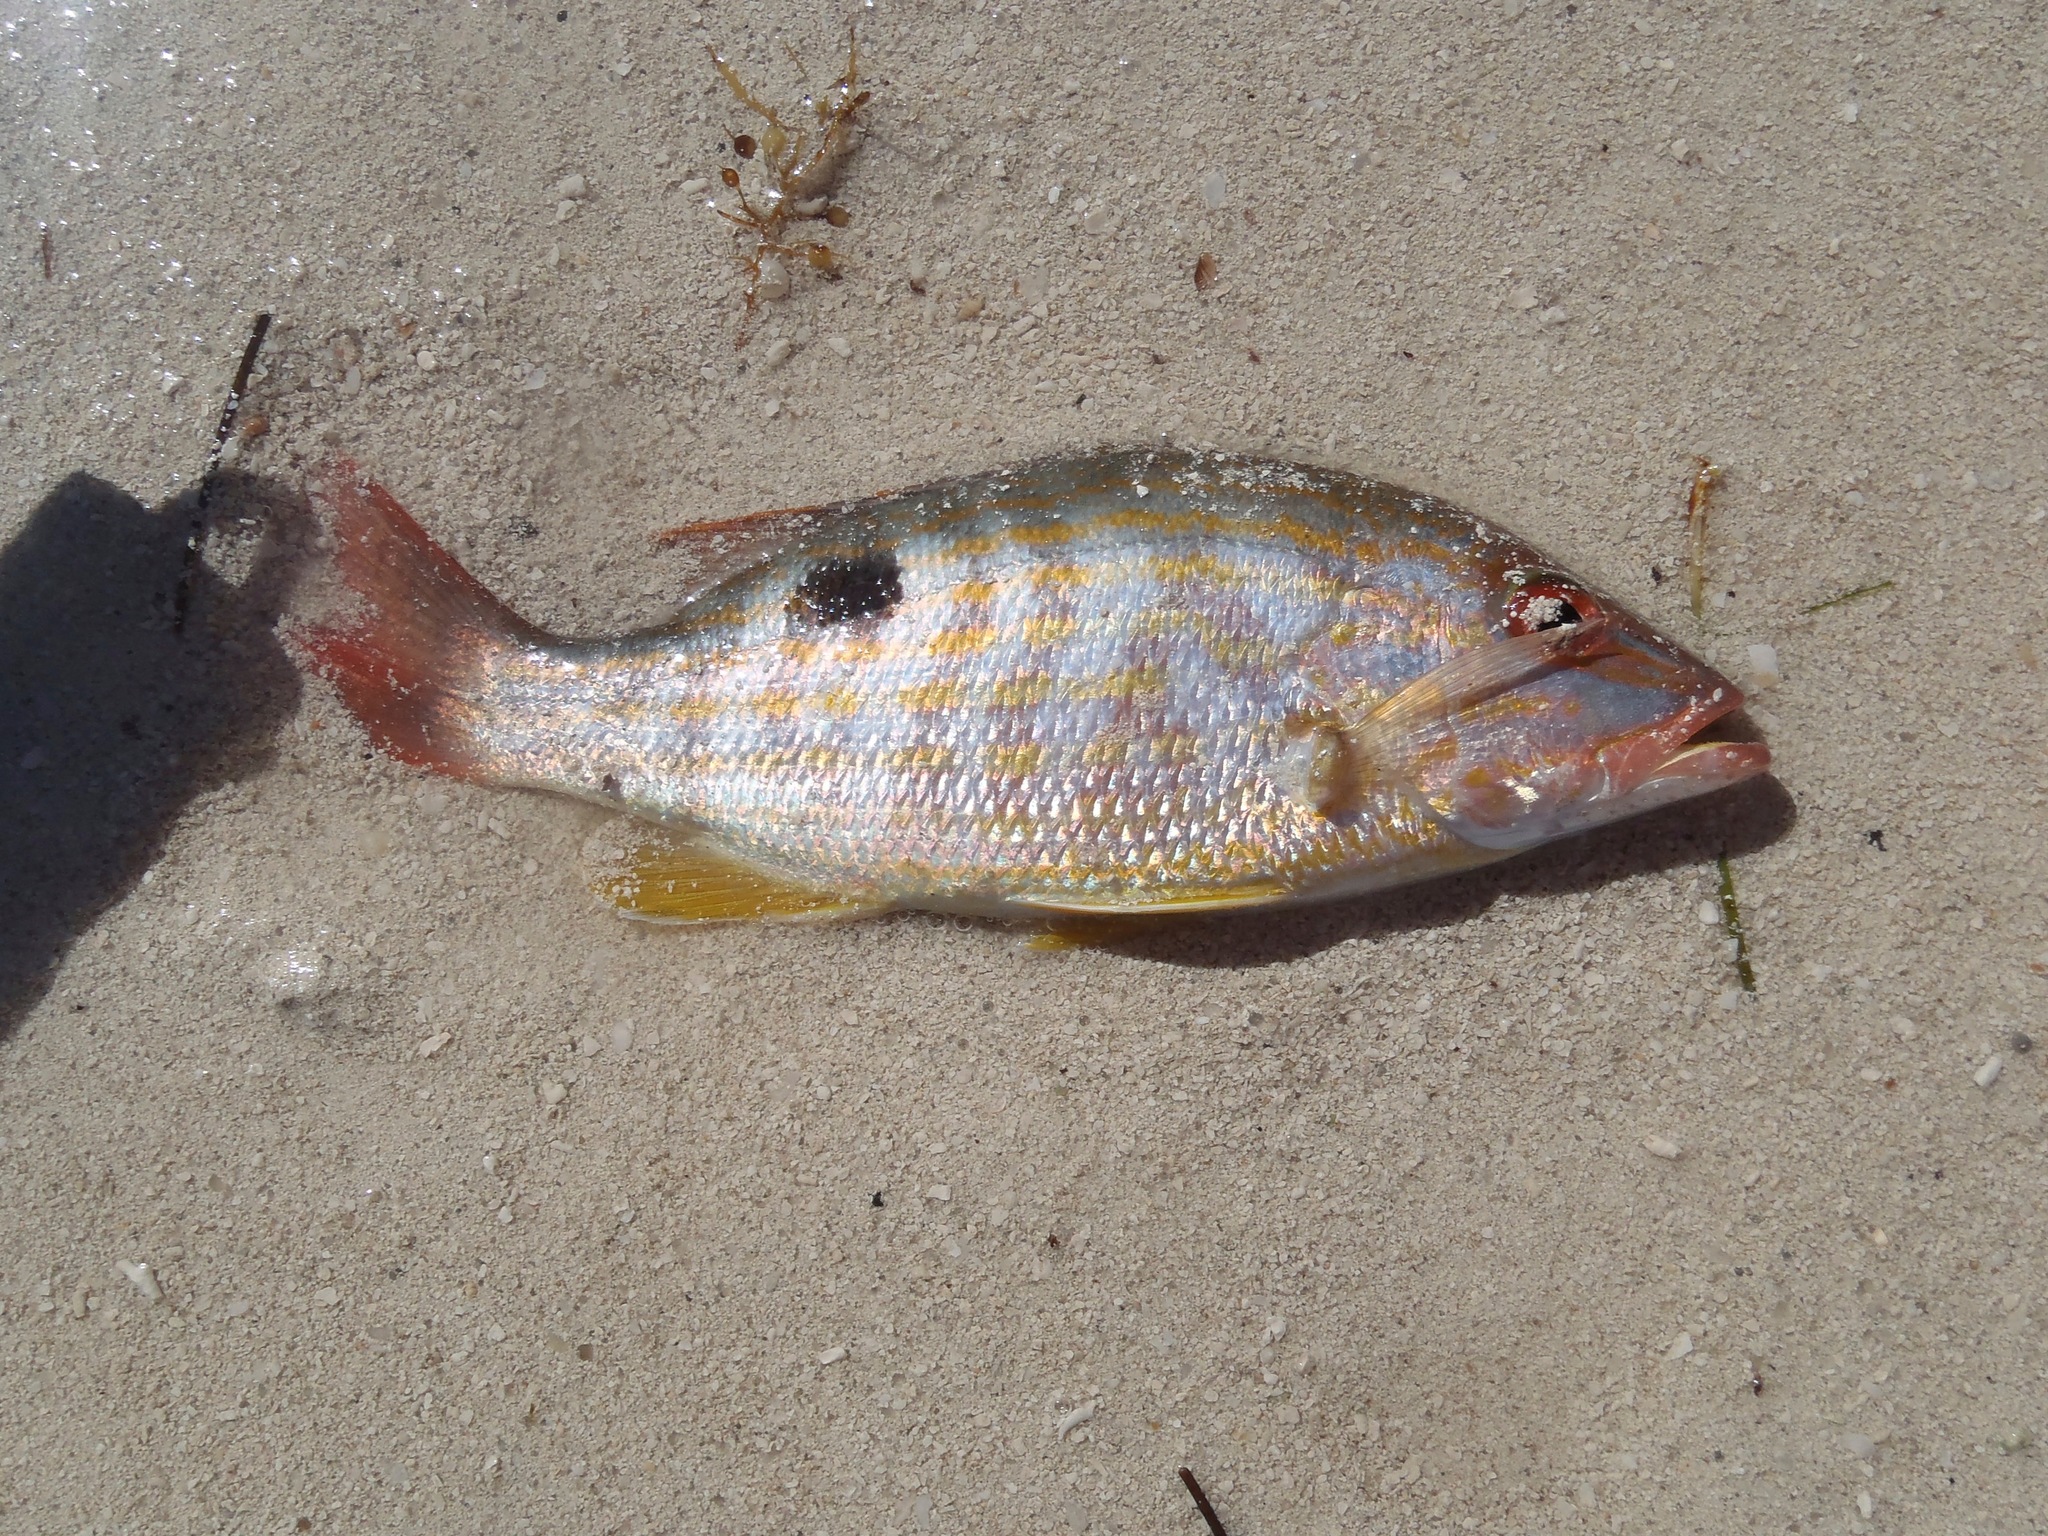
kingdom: Animalia
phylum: Chordata
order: Perciformes
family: Lutjanidae
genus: Lutjanus
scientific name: Lutjanus synagris
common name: Lane snapper
